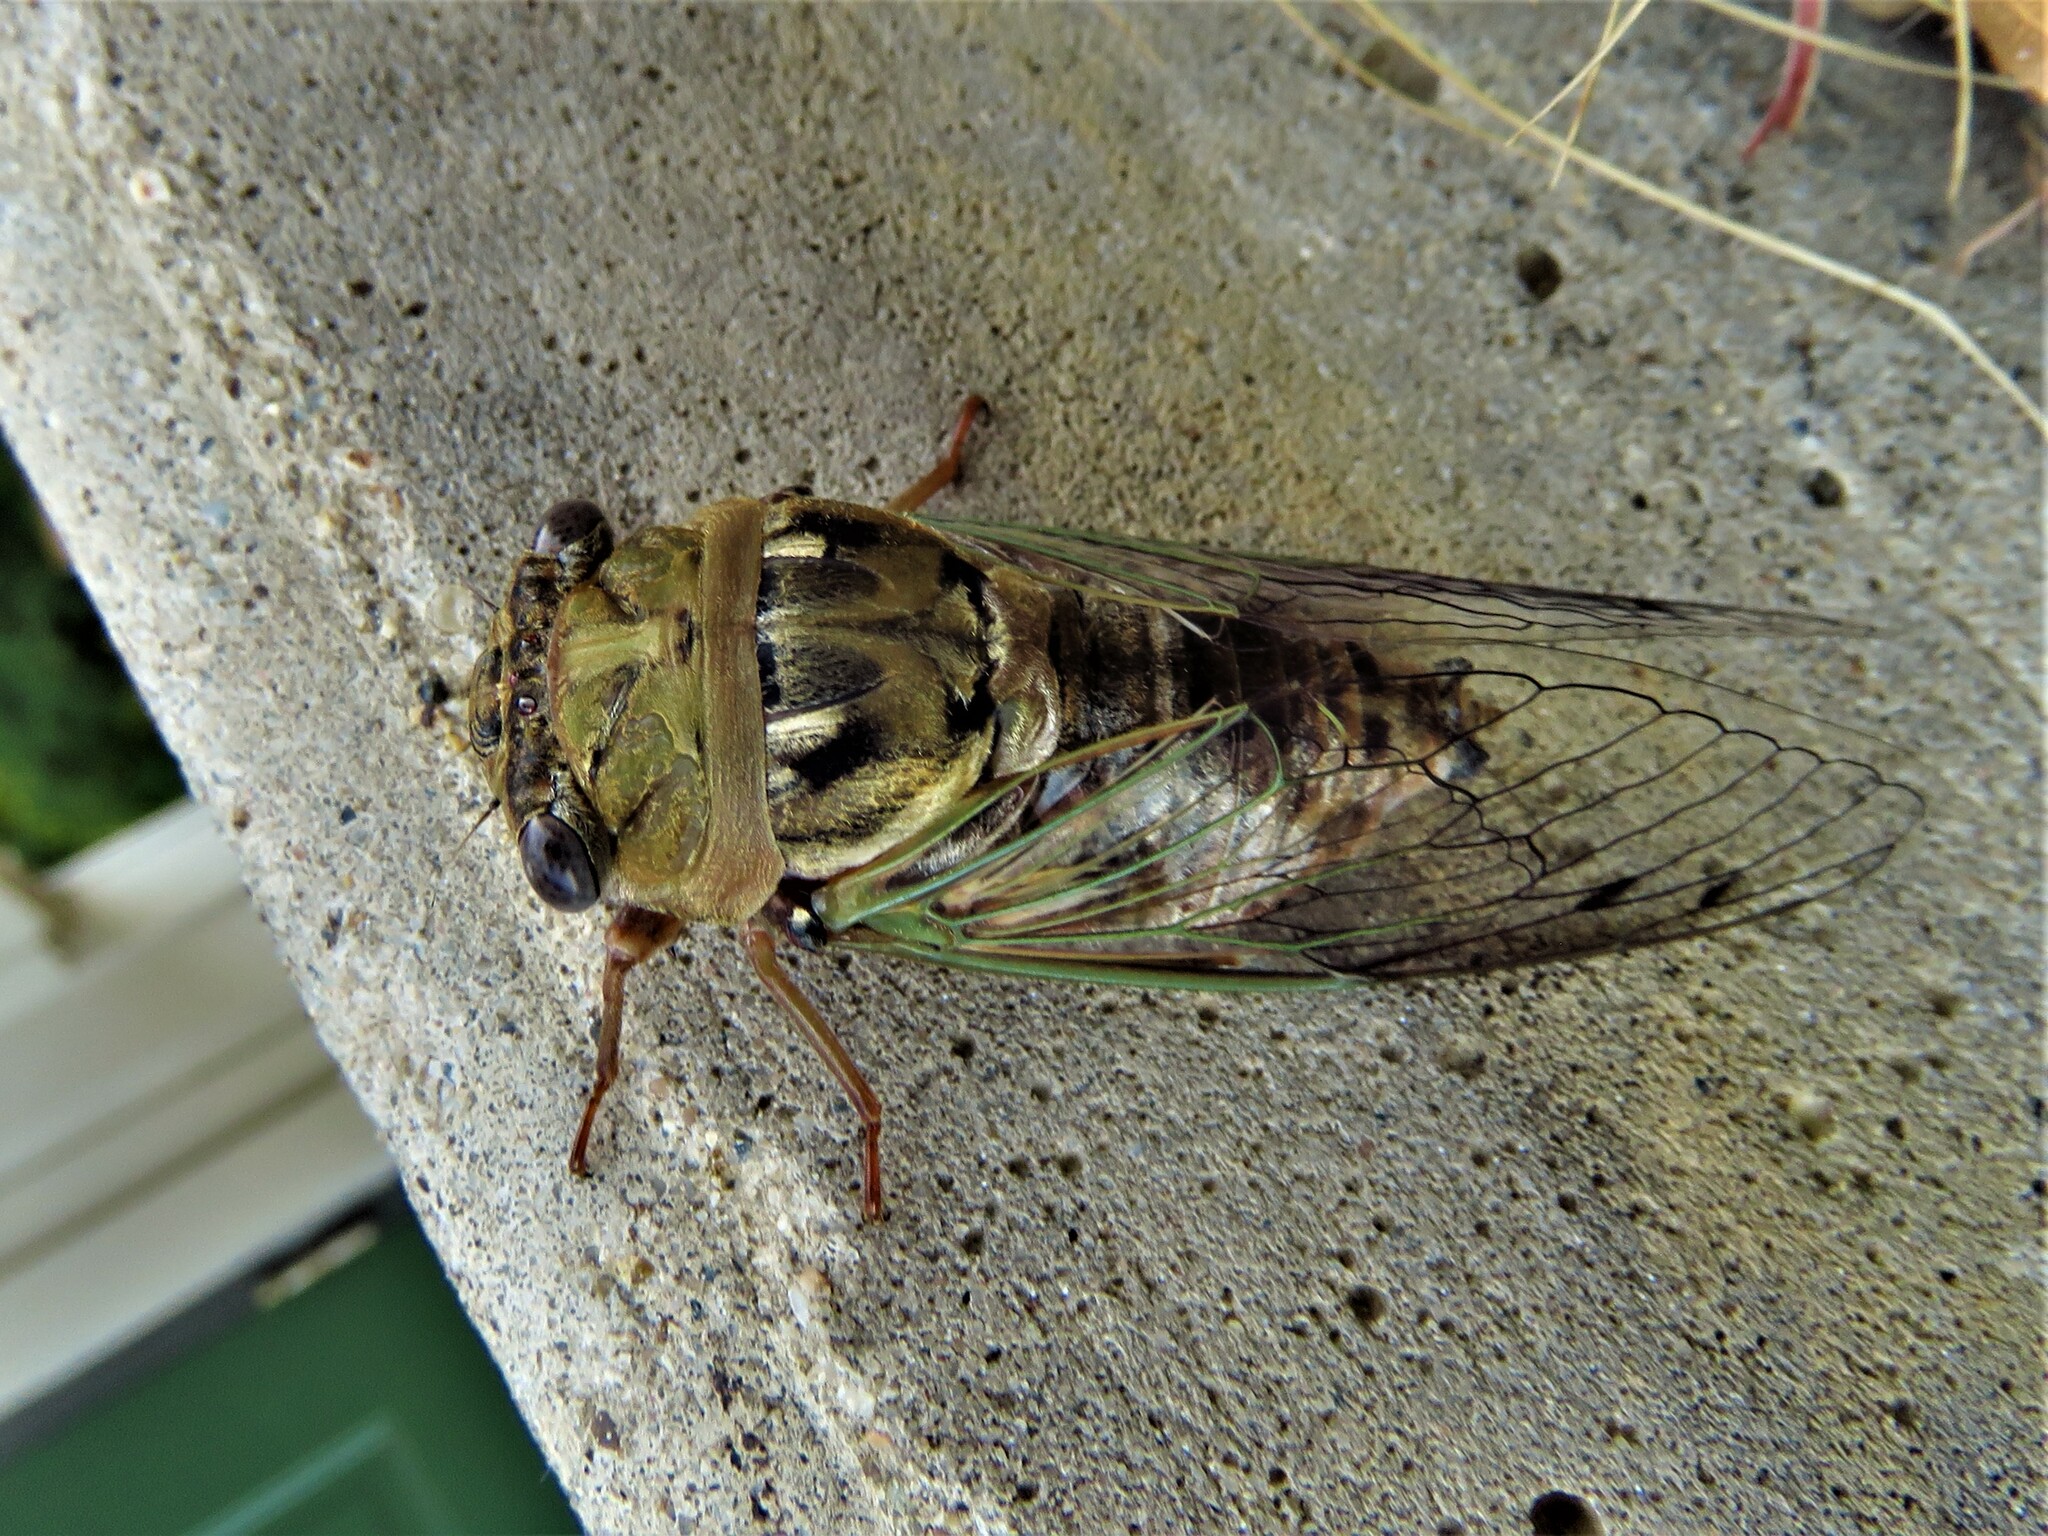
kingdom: Animalia
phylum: Arthropoda
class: Insecta
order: Hemiptera
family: Cicadidae
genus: Megatibicen
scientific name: Megatibicen resh
